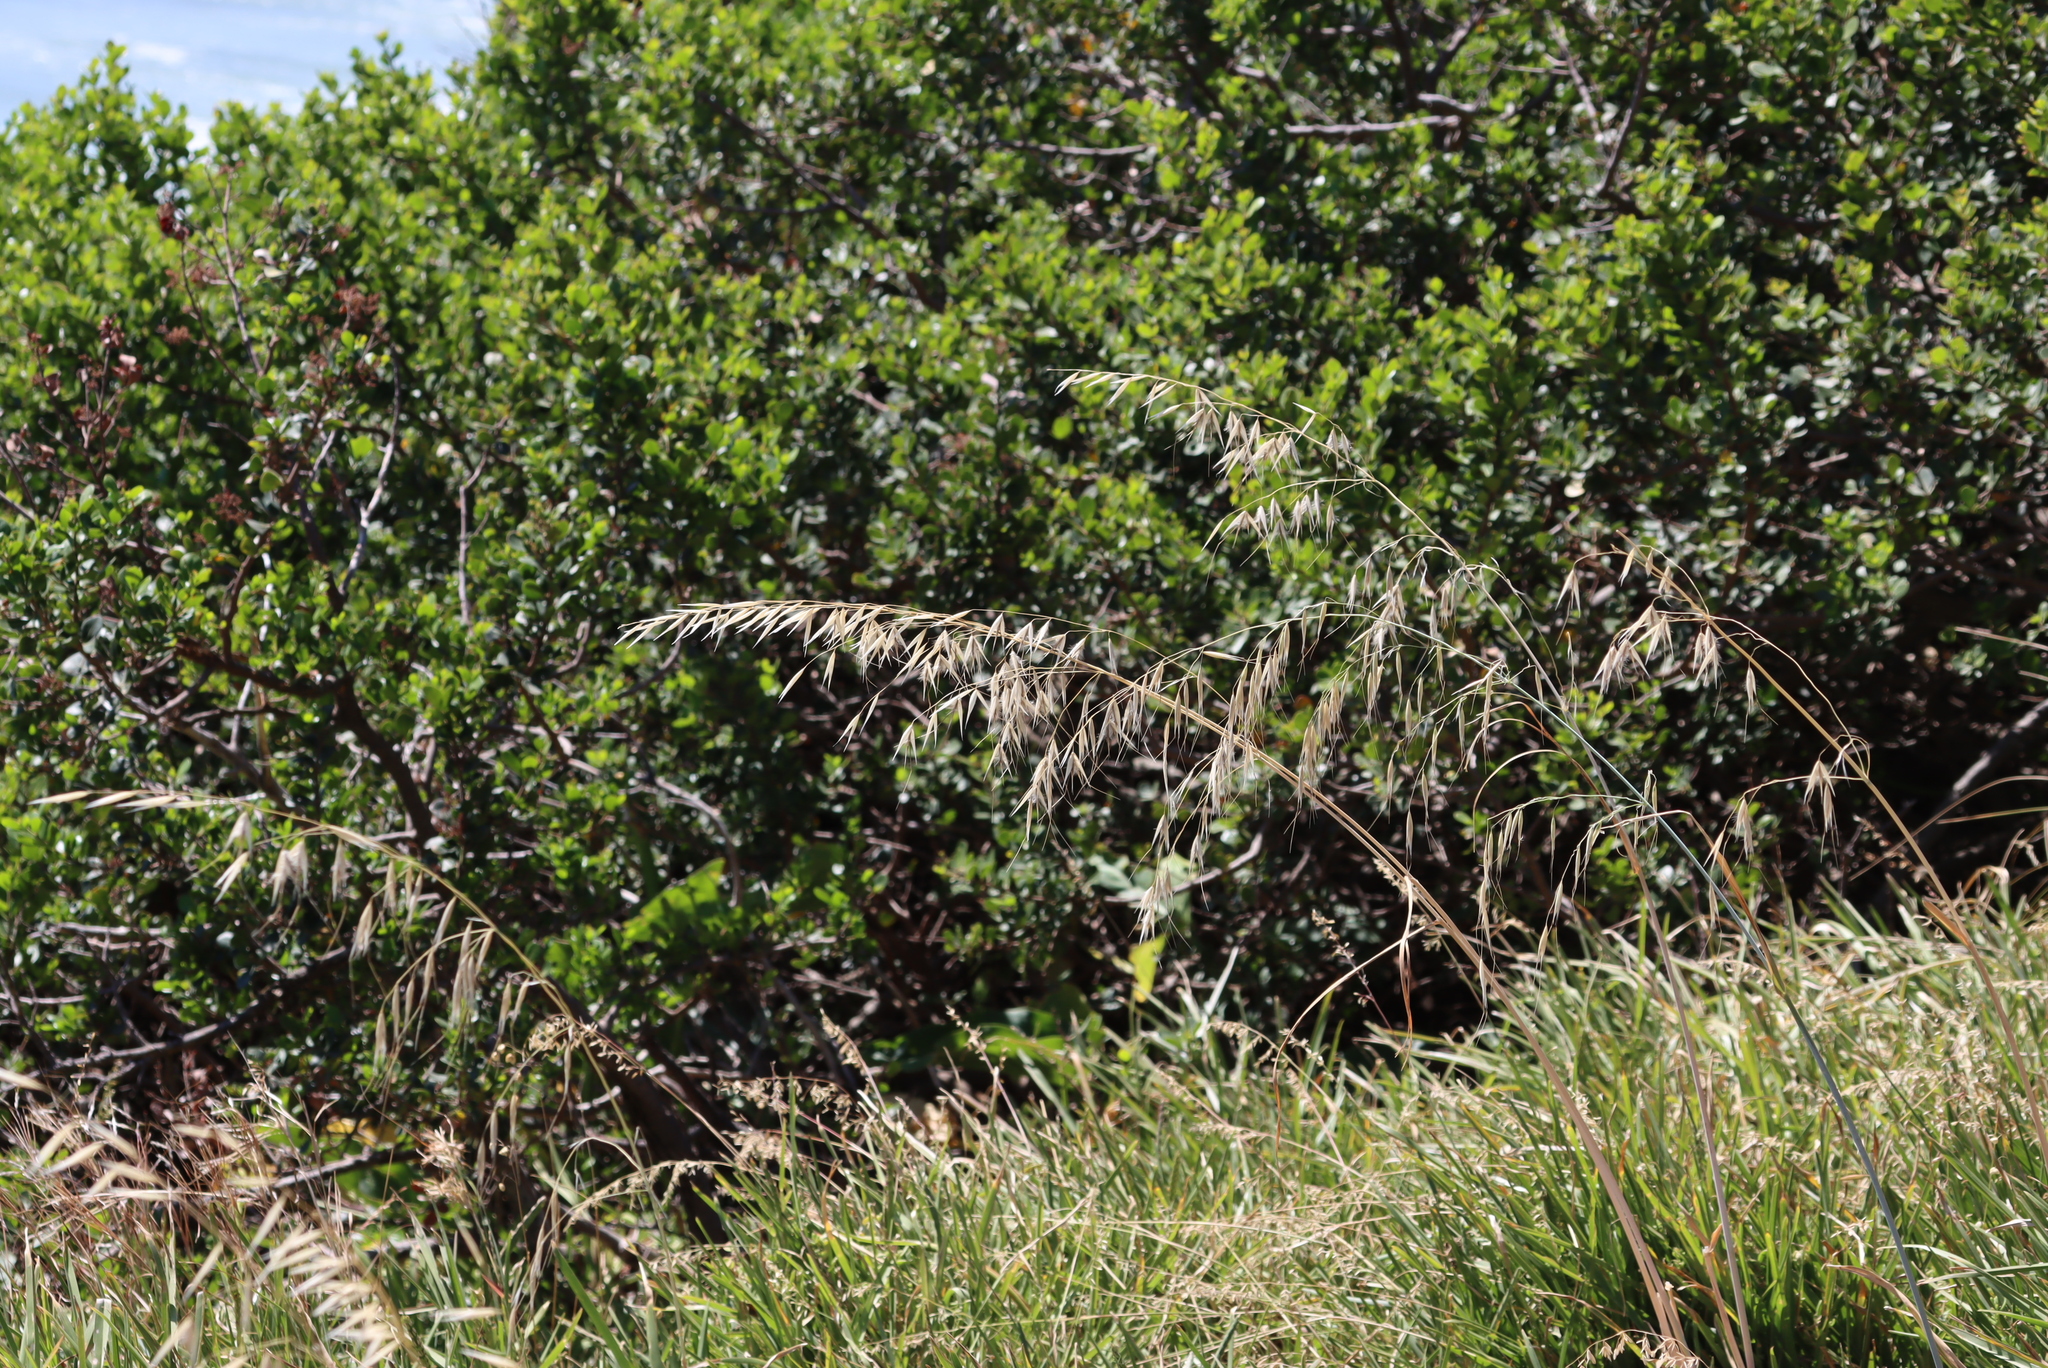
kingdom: Plantae
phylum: Tracheophyta
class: Liliopsida
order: Poales
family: Poaceae
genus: Avena
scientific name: Avena fatua
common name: Wild oat
